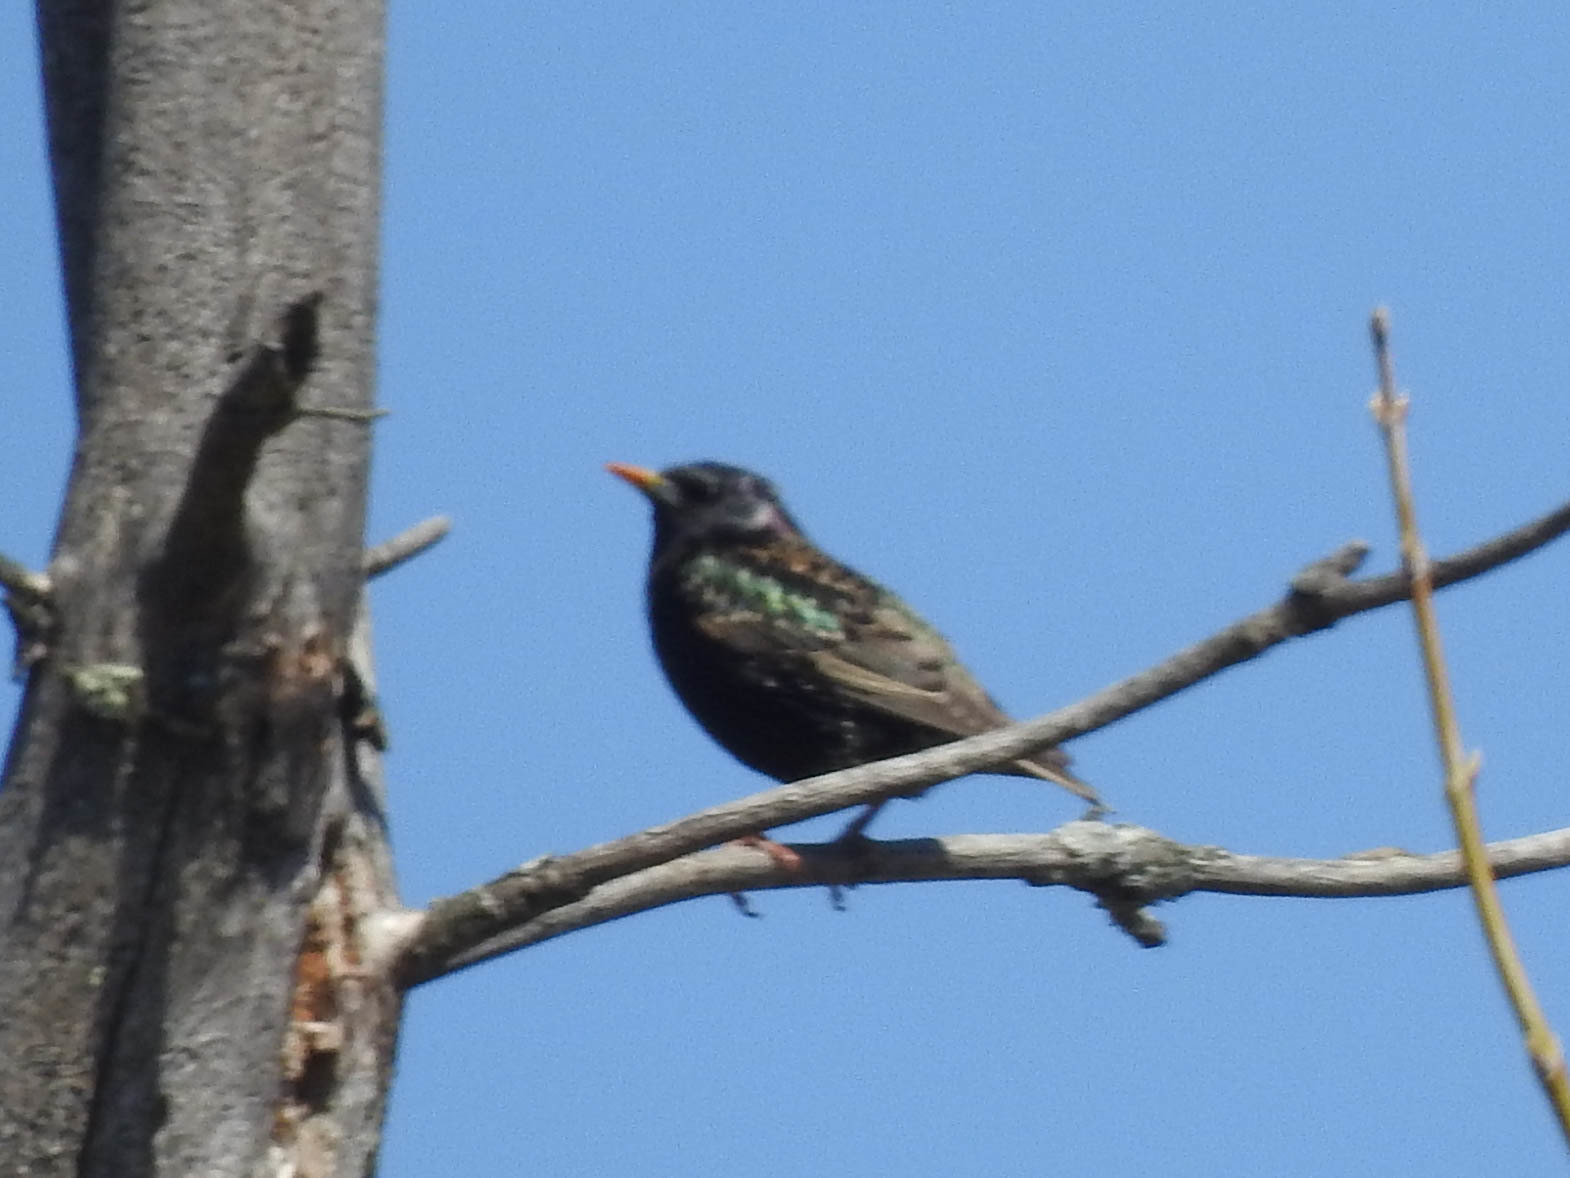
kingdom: Animalia
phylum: Chordata
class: Aves
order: Passeriformes
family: Sturnidae
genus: Sturnus
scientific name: Sturnus vulgaris
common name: Common starling
